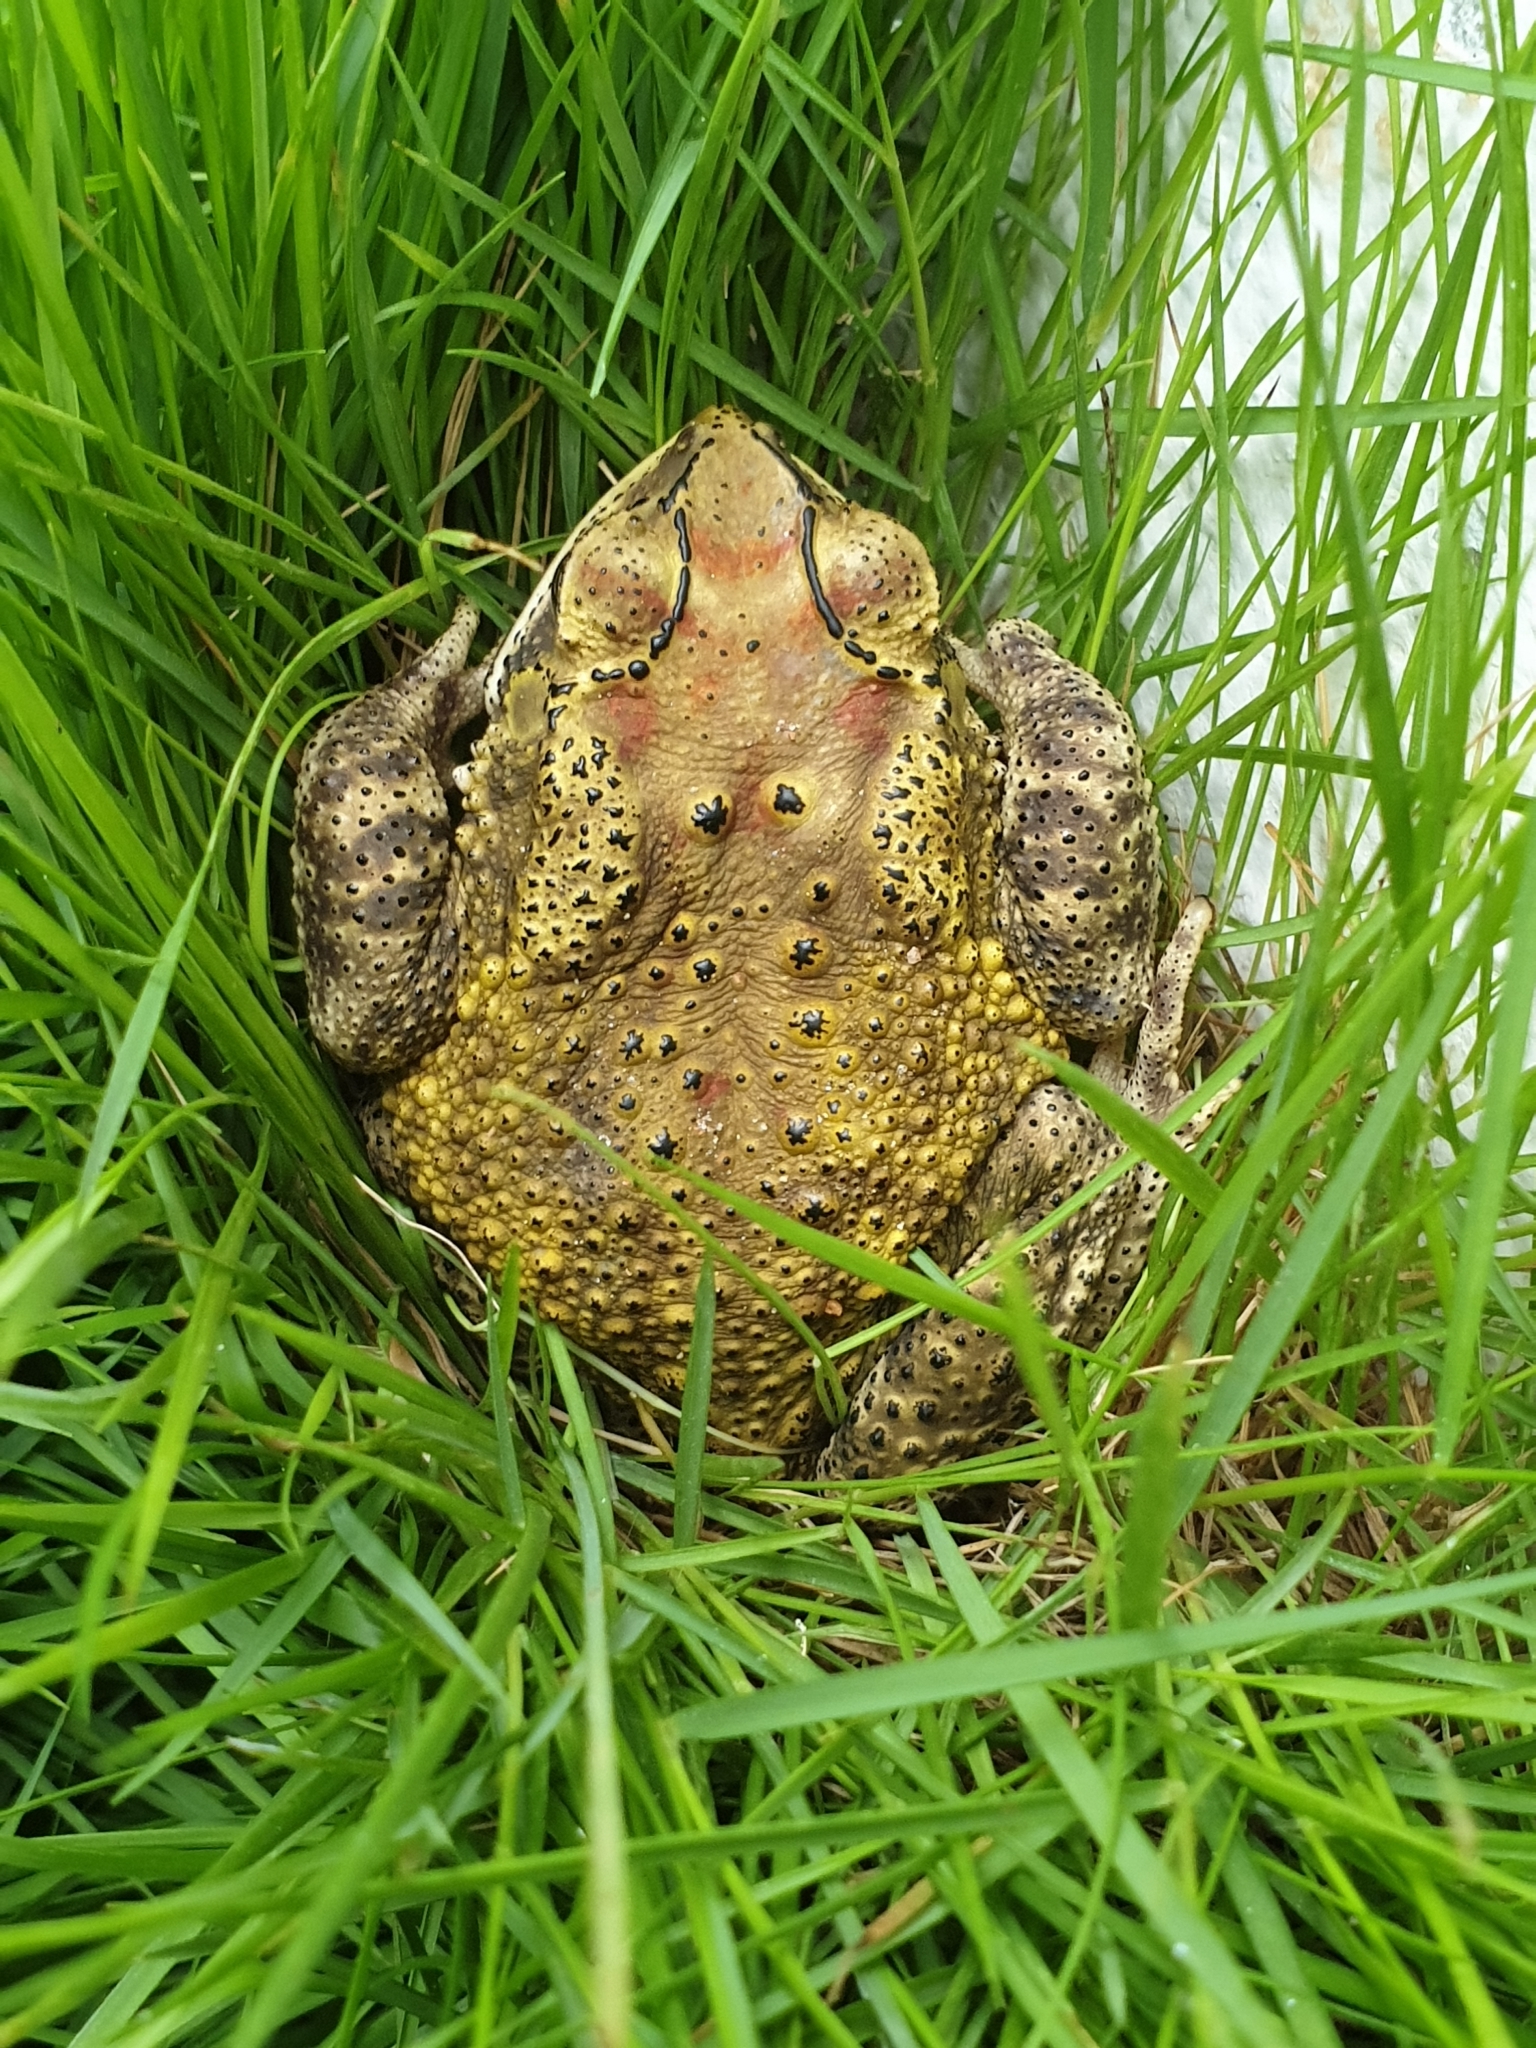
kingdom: Animalia
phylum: Chordata
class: Amphibia
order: Anura
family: Bufonidae
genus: Duttaphrynus
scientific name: Duttaphrynus melanostictus
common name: Common sunda toad
